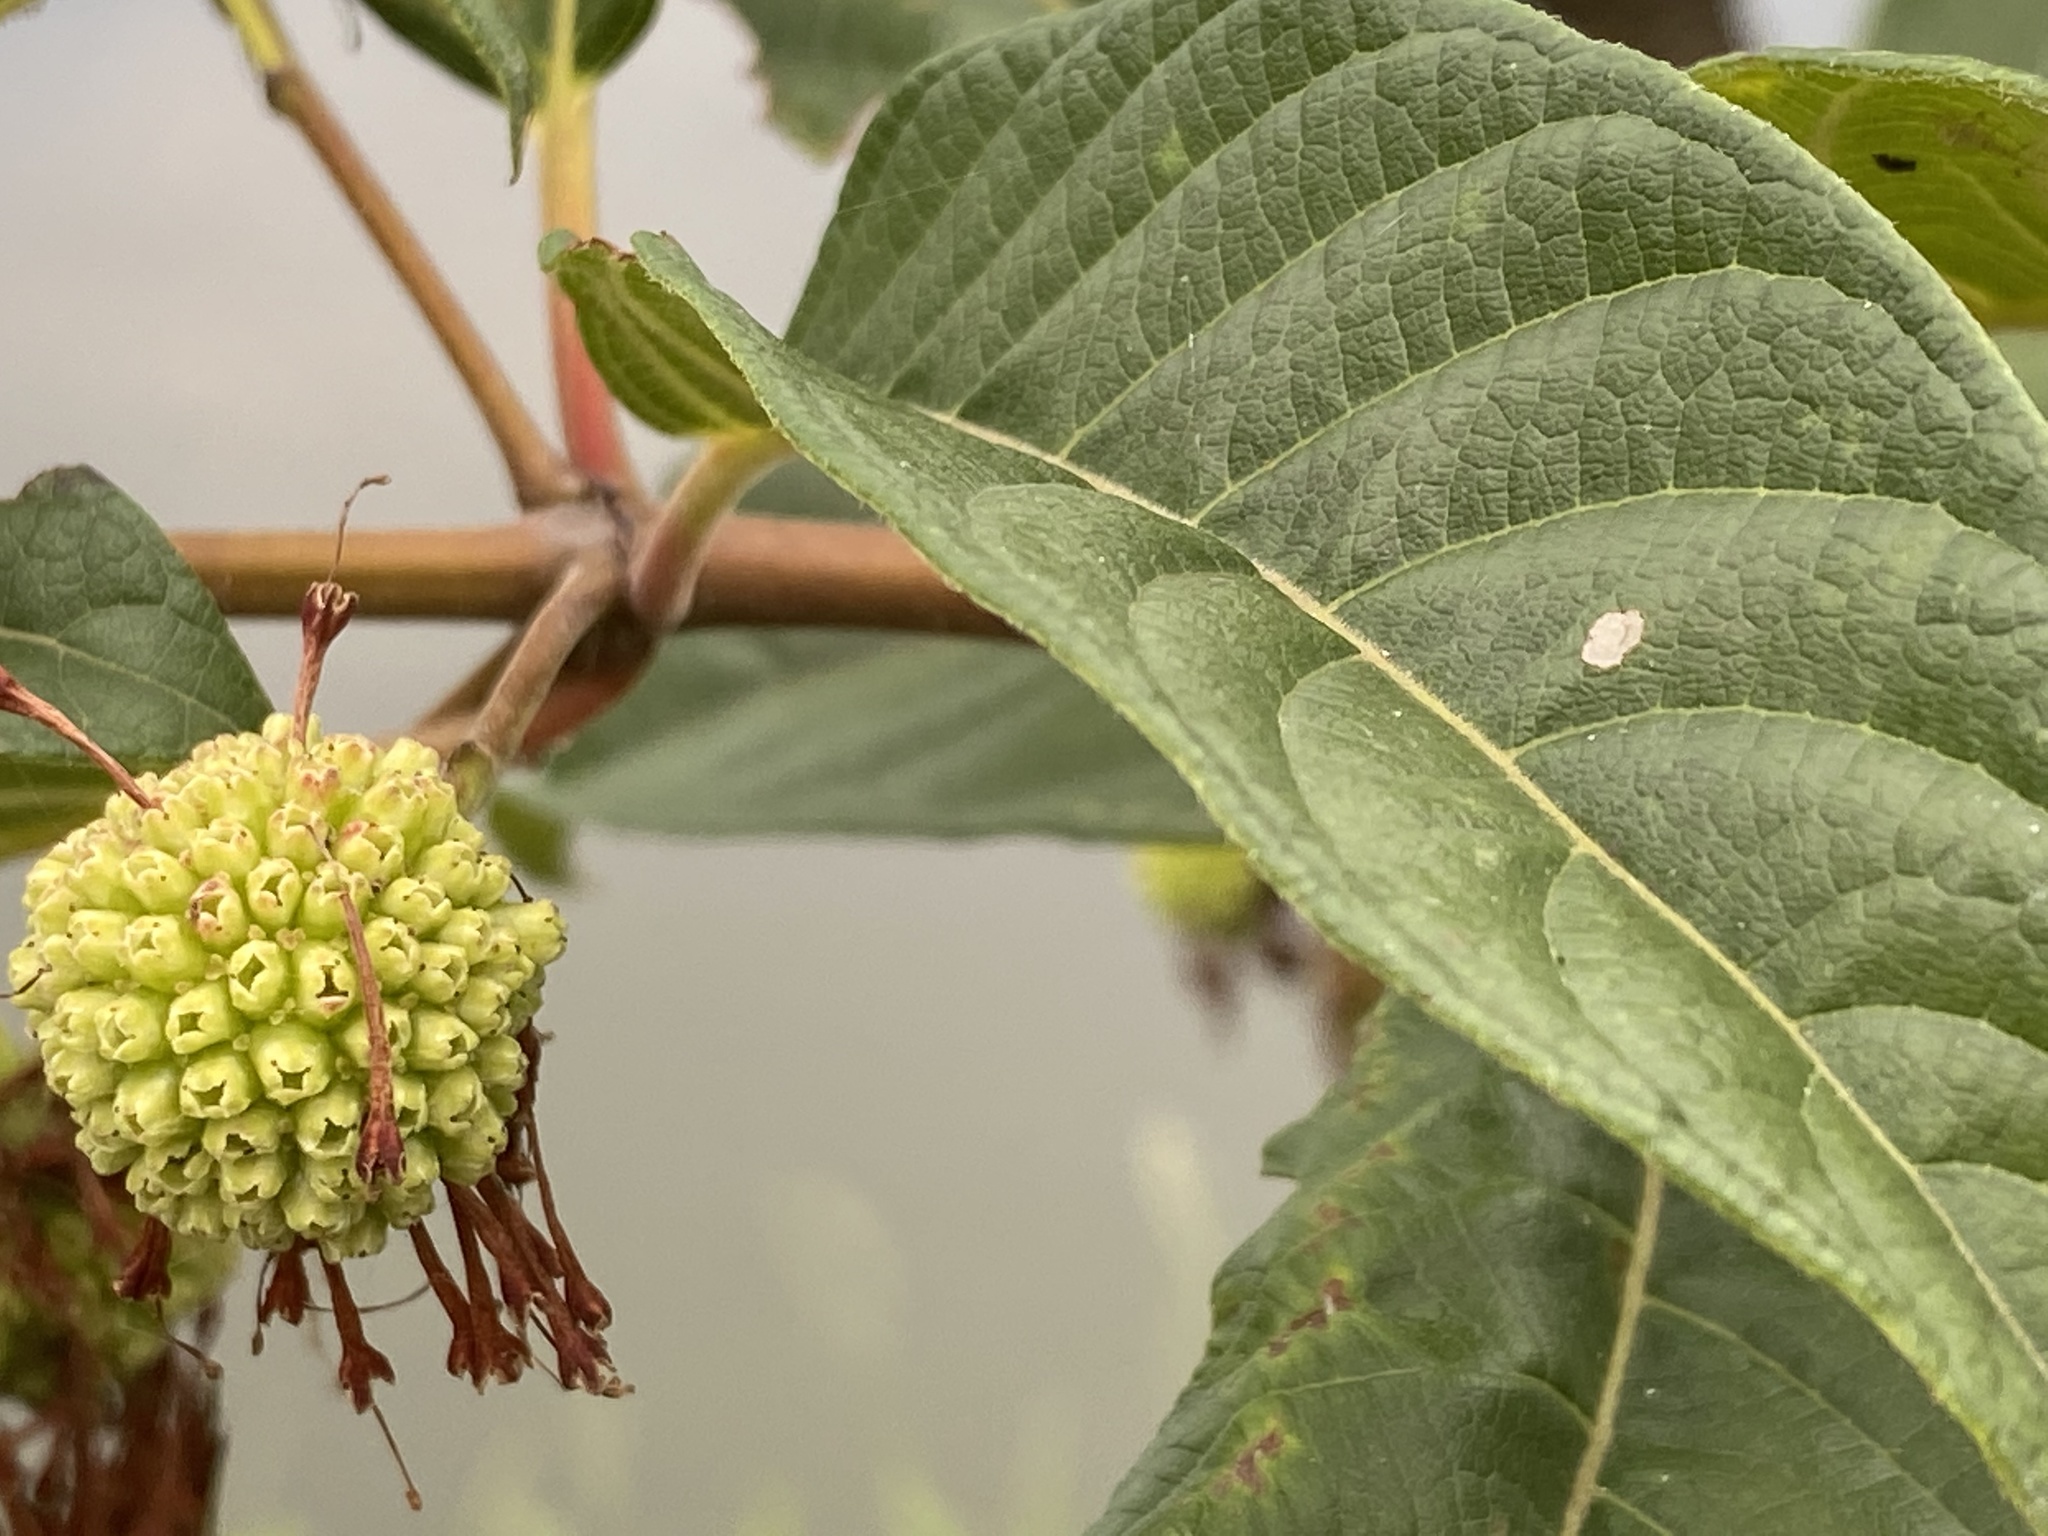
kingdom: Plantae
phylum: Tracheophyta
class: Magnoliopsida
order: Gentianales
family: Rubiaceae
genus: Cephalanthus
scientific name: Cephalanthus tetrandrus
